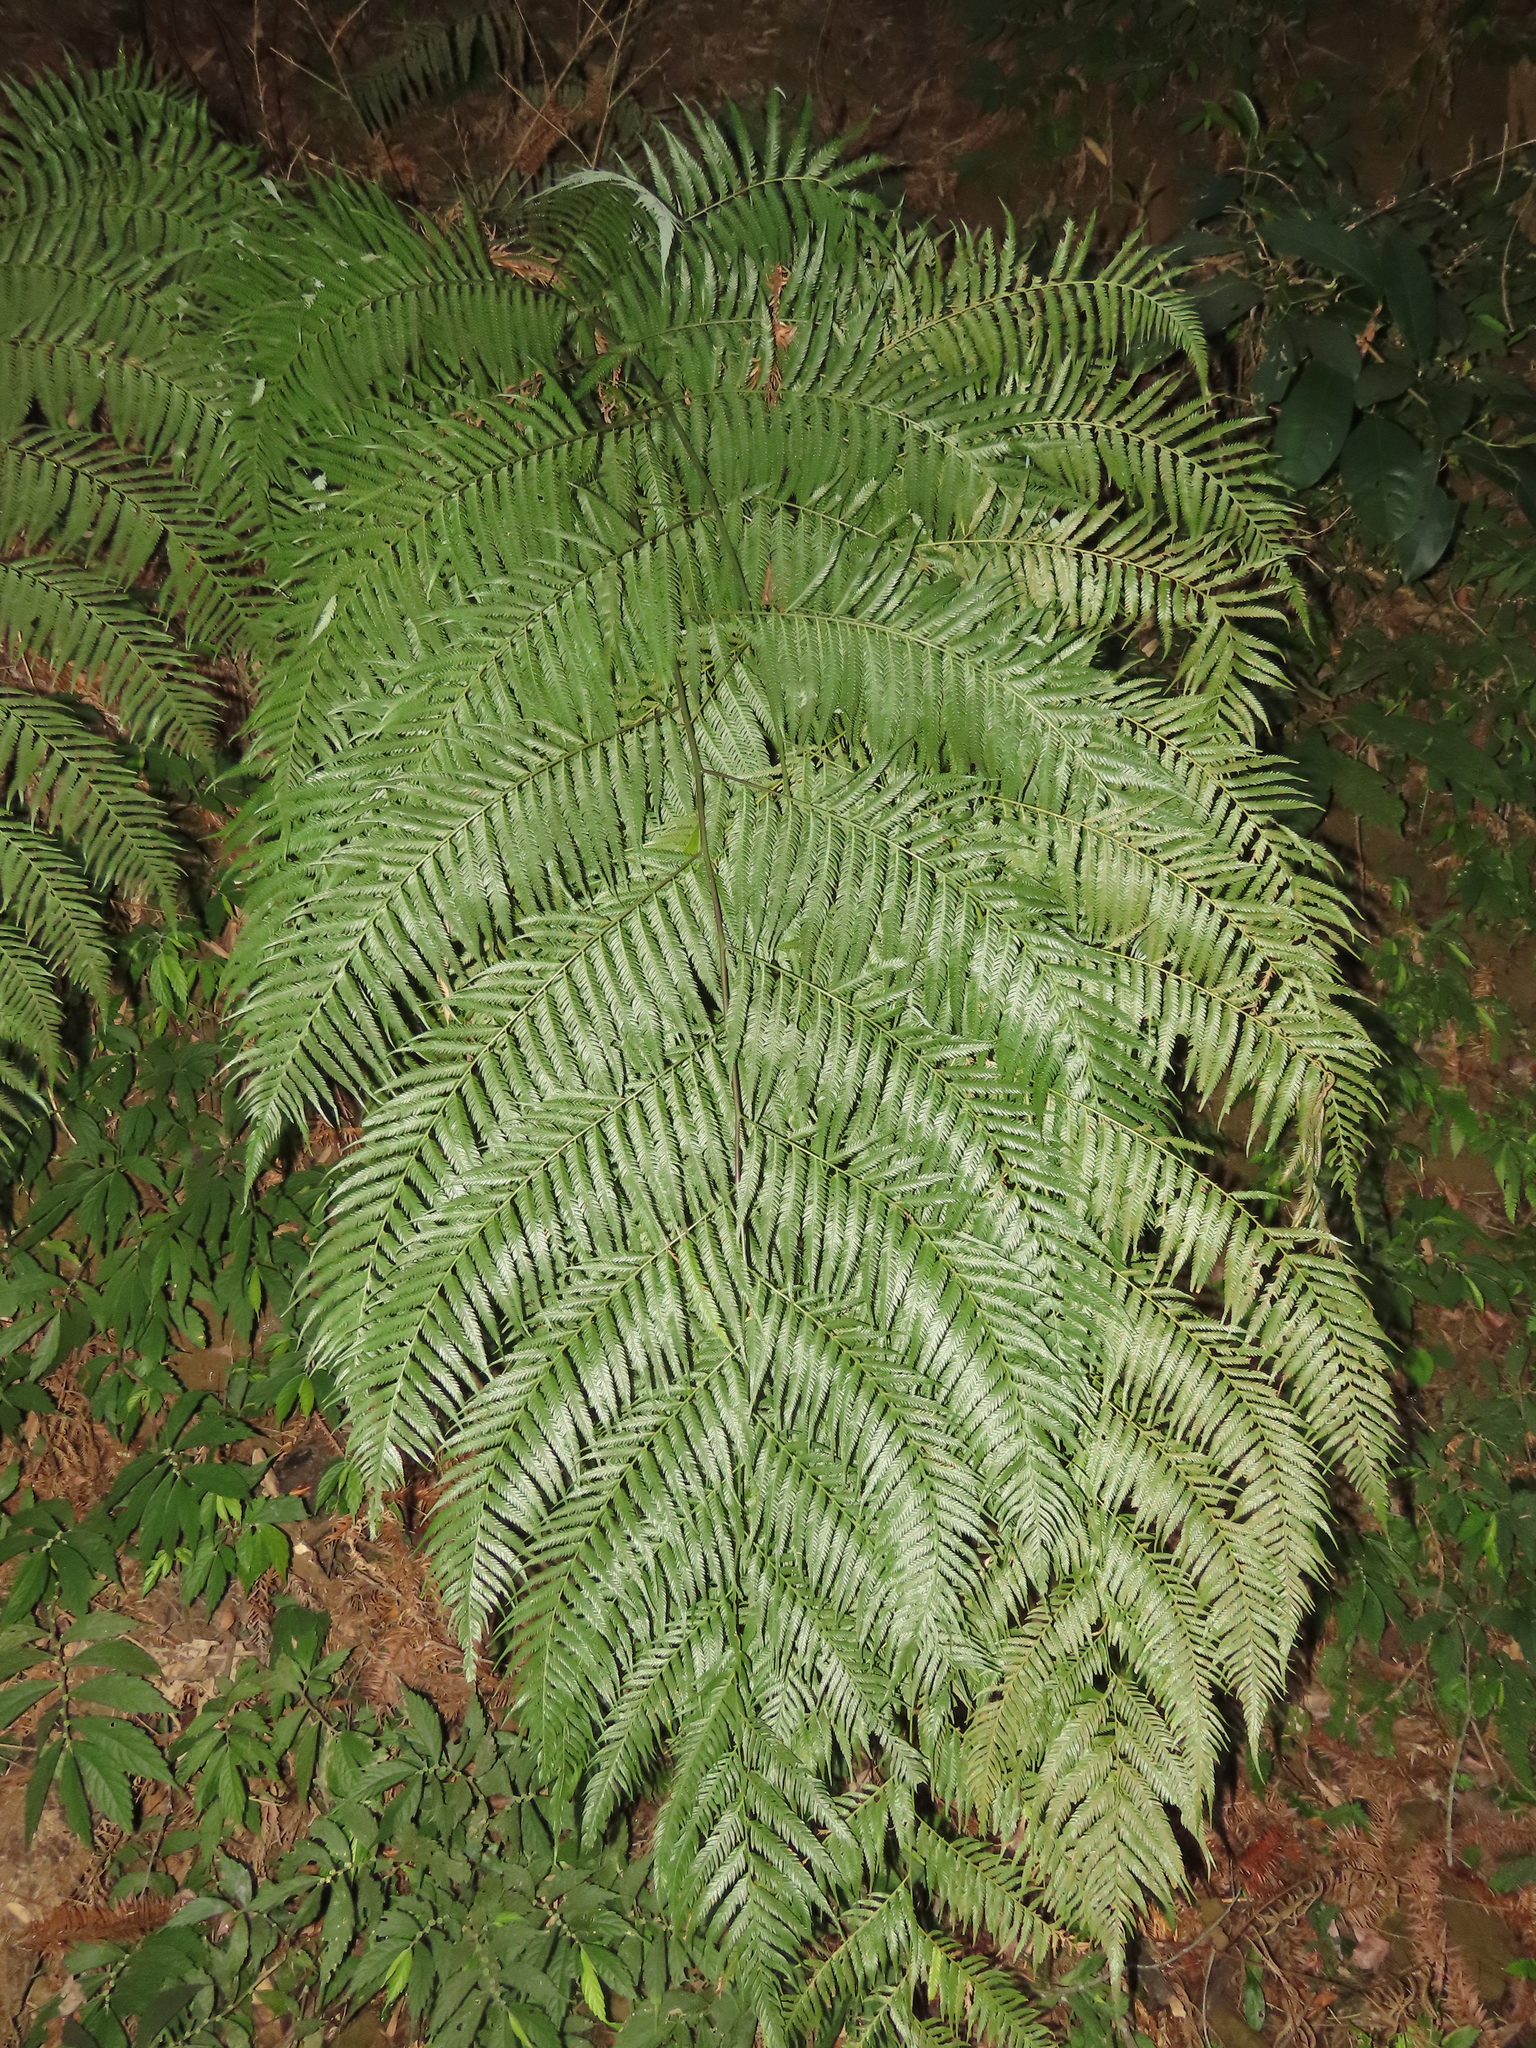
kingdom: Plantae
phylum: Tracheophyta
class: Polypodiopsida
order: Cyatheales
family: Cibotiaceae
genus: Cibotium
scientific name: Cibotium taiwanense
